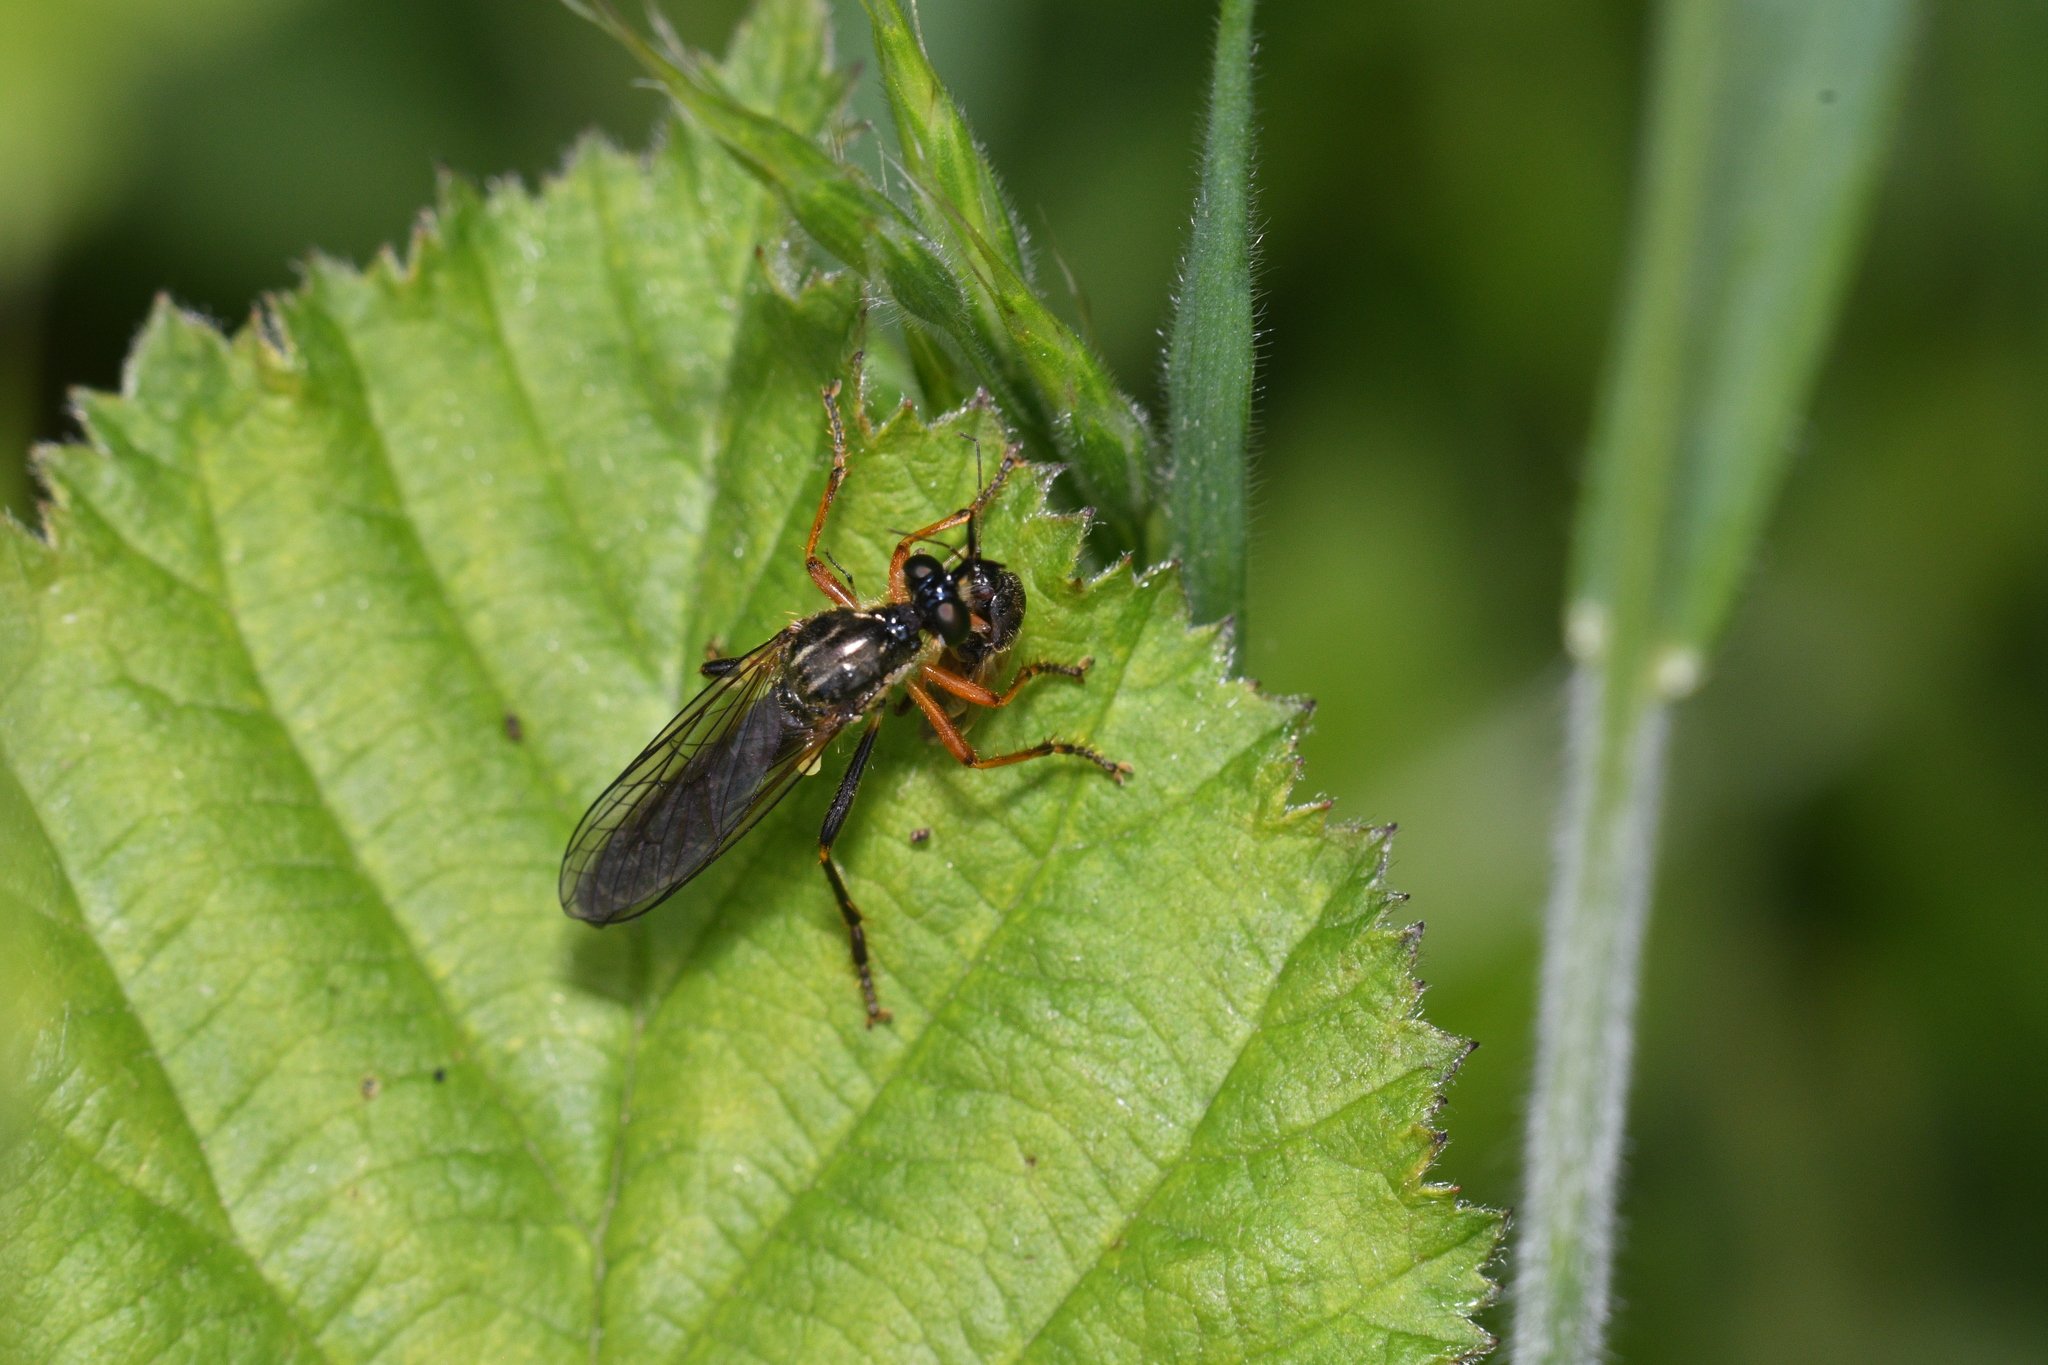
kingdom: Animalia
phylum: Arthropoda
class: Insecta
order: Diptera
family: Asilidae
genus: Dioctria
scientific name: Dioctria rufipes
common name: Common red-legged robberfly
